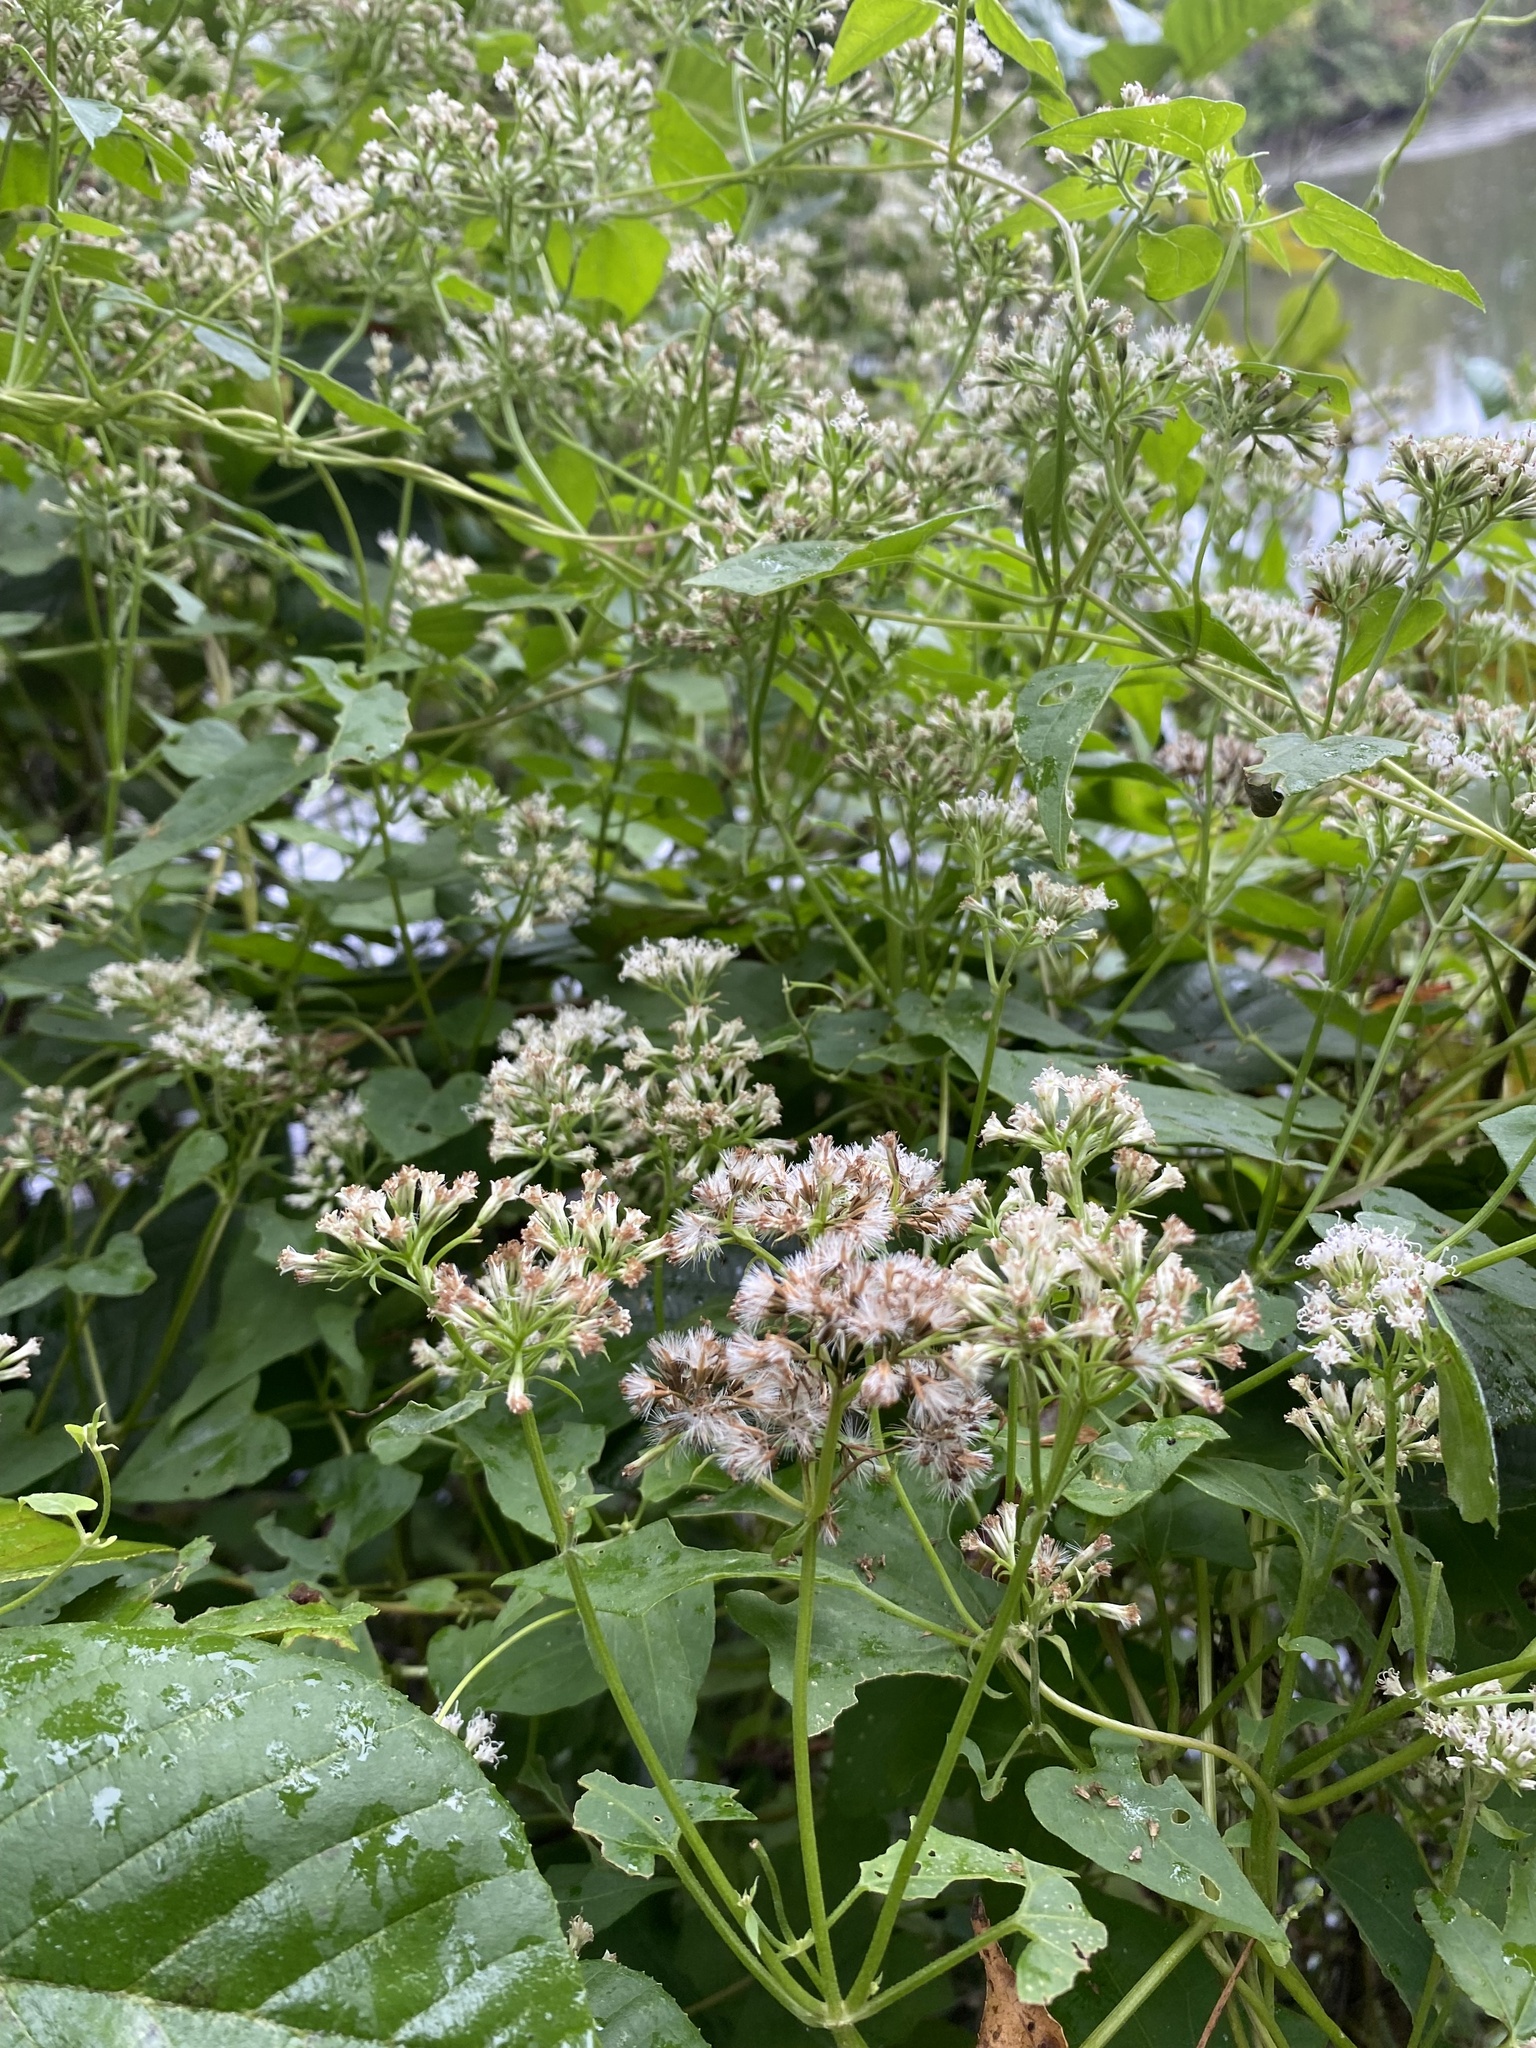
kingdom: Plantae
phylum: Tracheophyta
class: Magnoliopsida
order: Asterales
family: Asteraceae
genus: Mikania
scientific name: Mikania scandens
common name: Climbing hempvine
